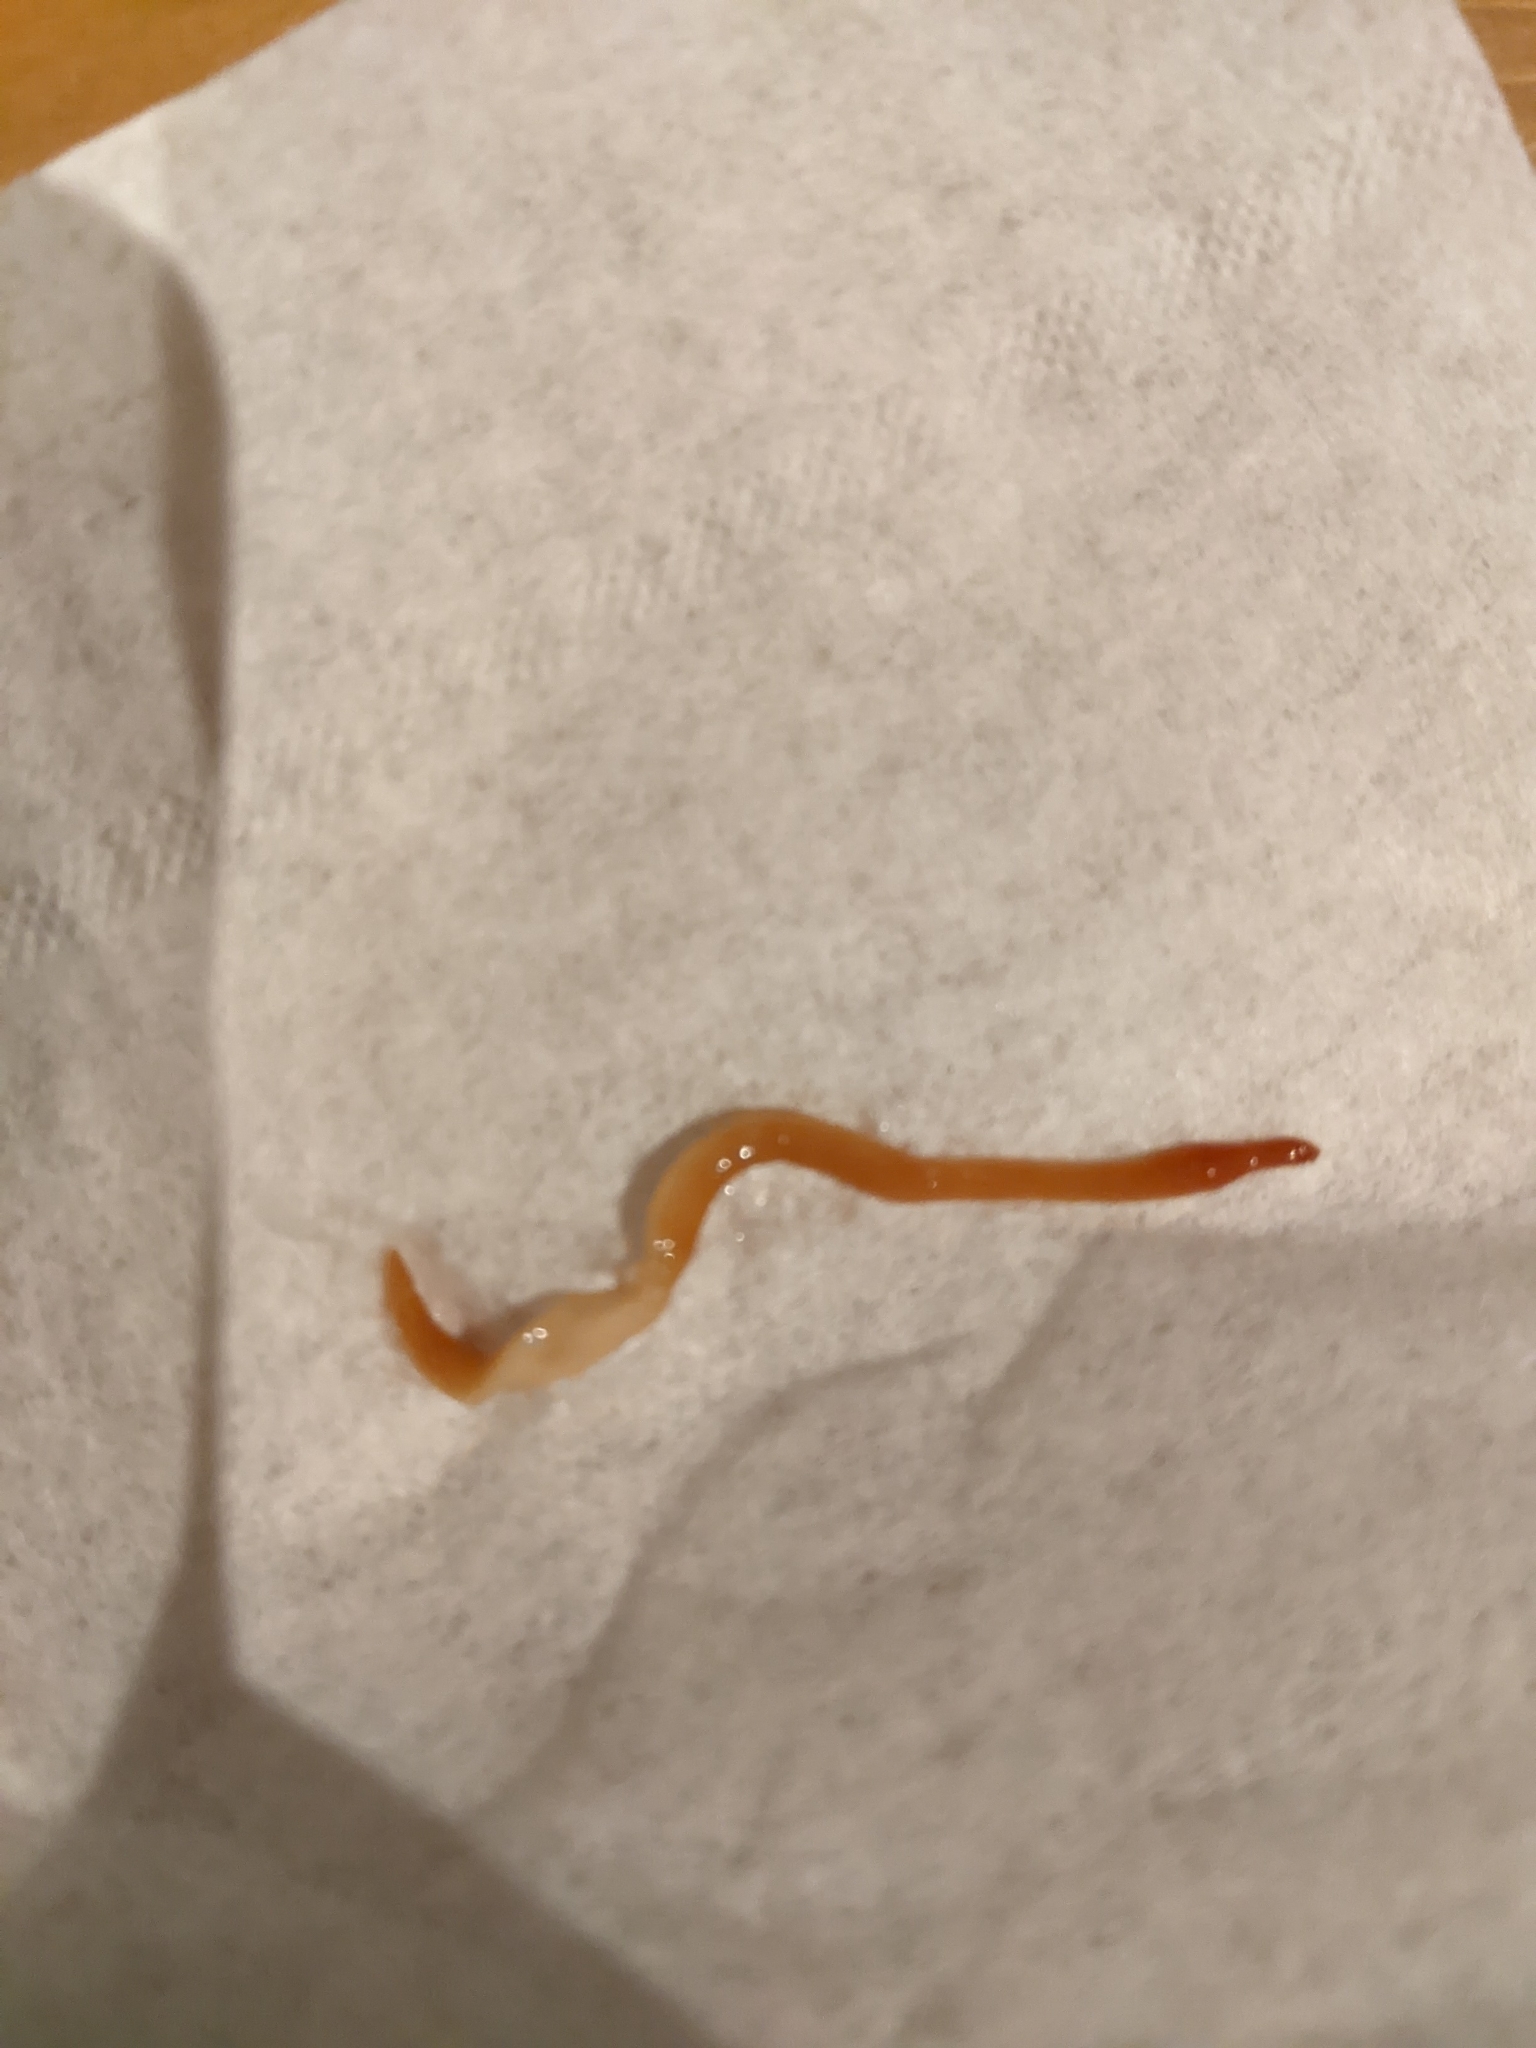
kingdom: Animalia
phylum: Platyhelminthes
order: Tricladida
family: Geoplanidae
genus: Australoplana
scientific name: Australoplana alba
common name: Australian flatworm
